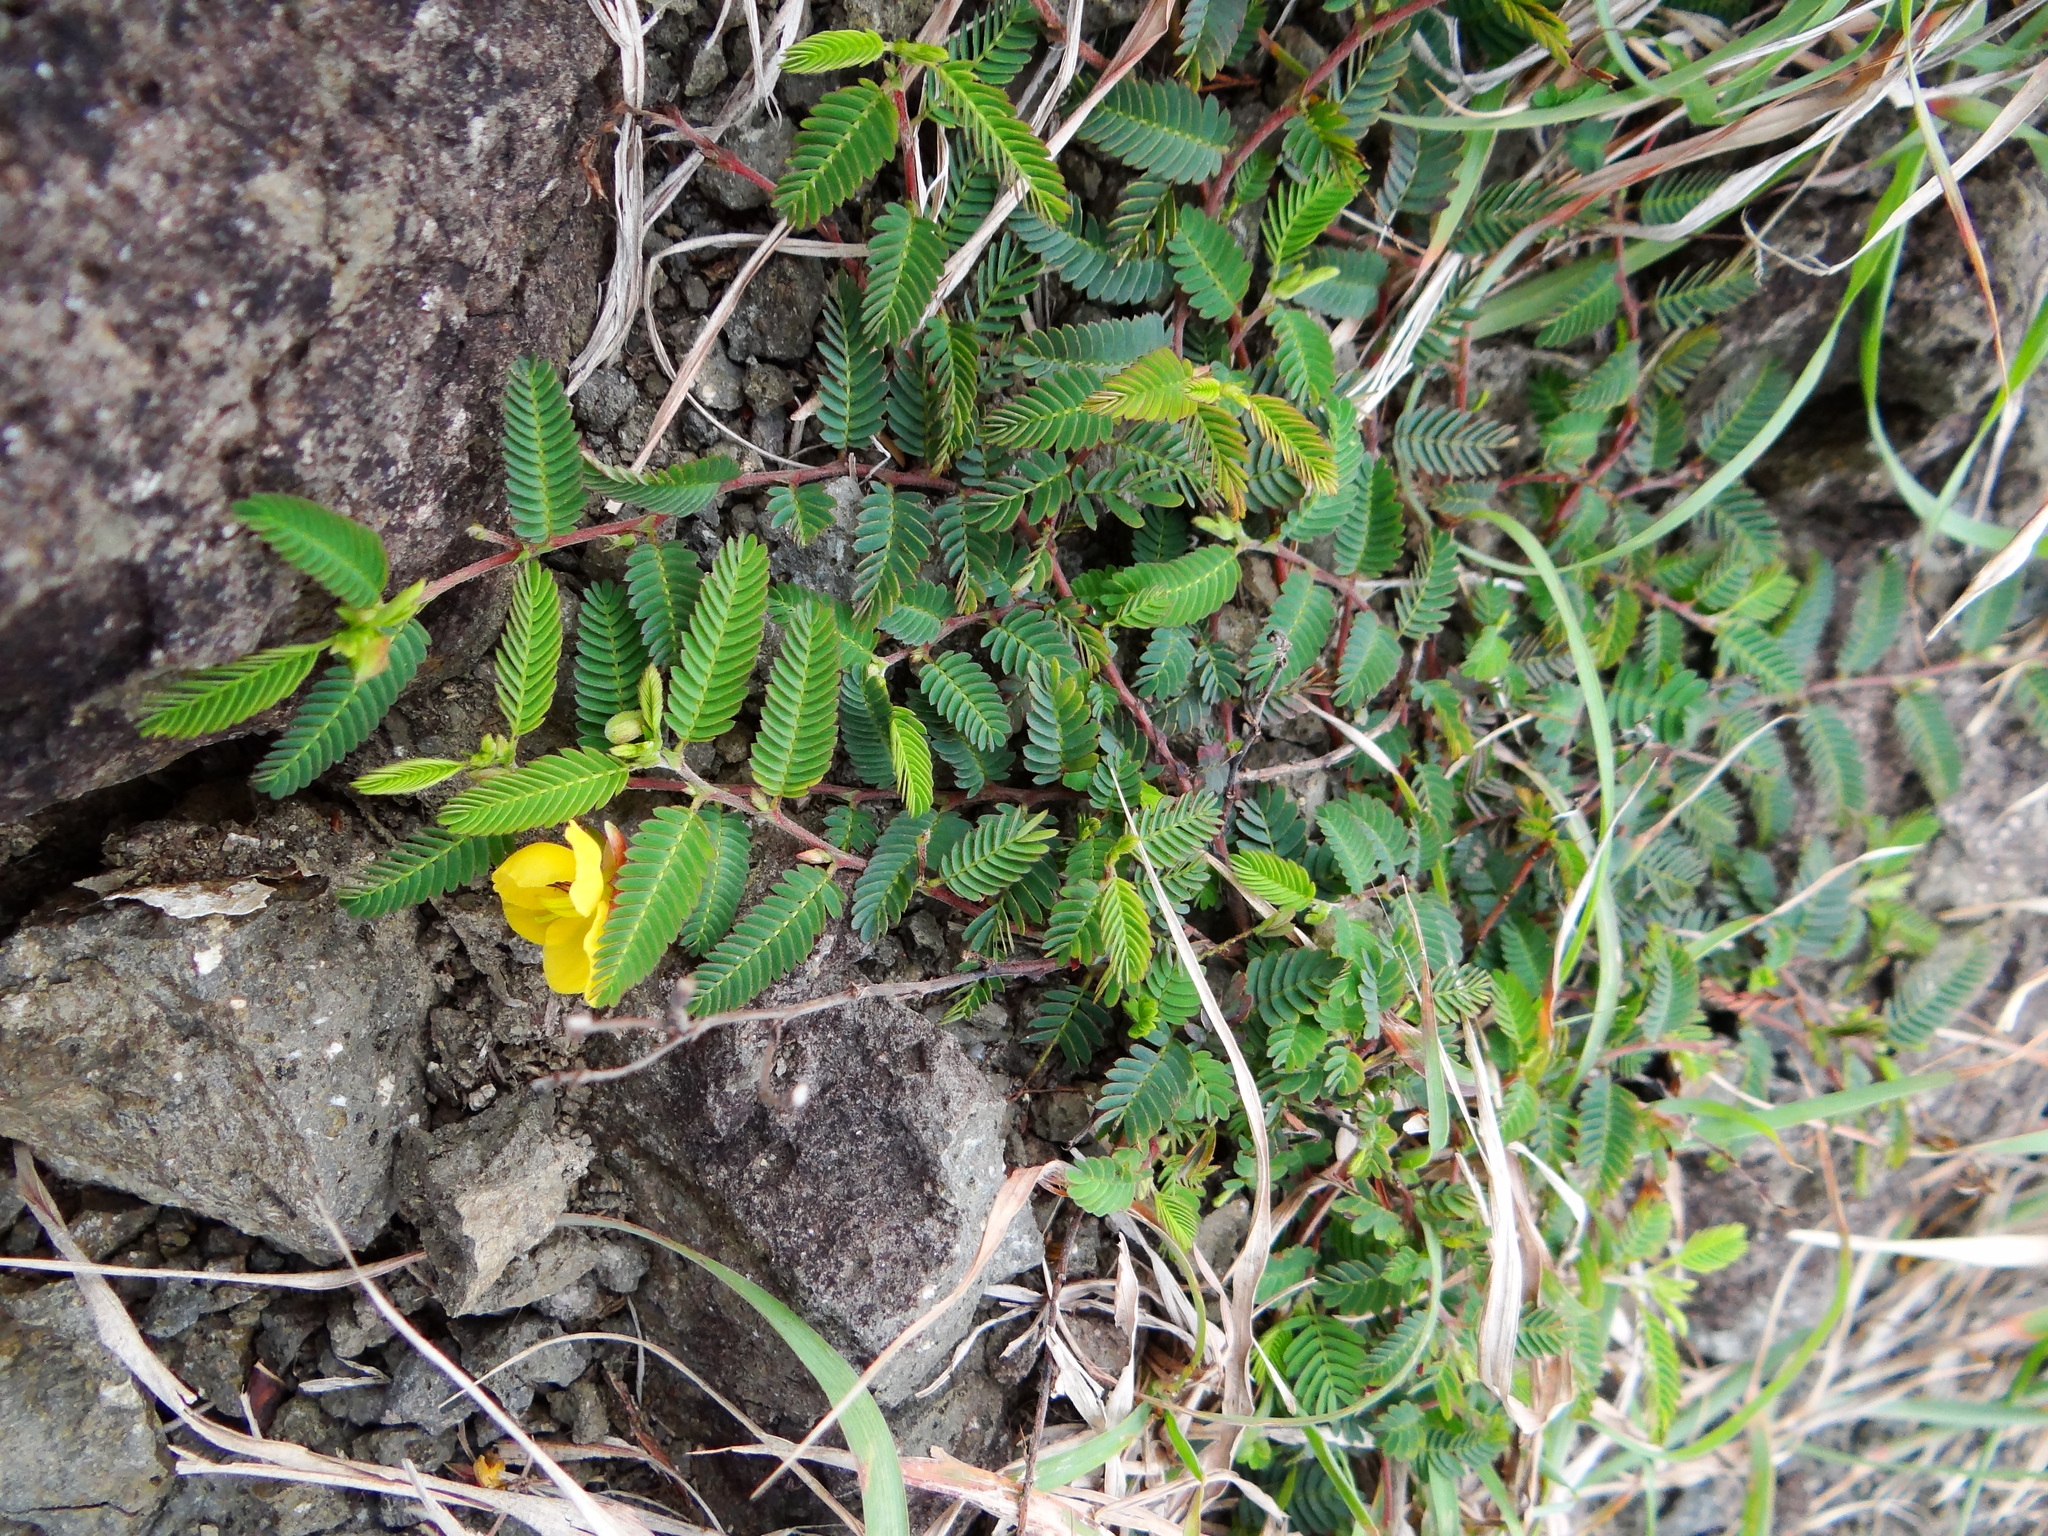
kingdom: Plantae
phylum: Tracheophyta
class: Magnoliopsida
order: Fabales
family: Fabaceae
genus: Chamaecrista
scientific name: Chamaecrista garambiensis
